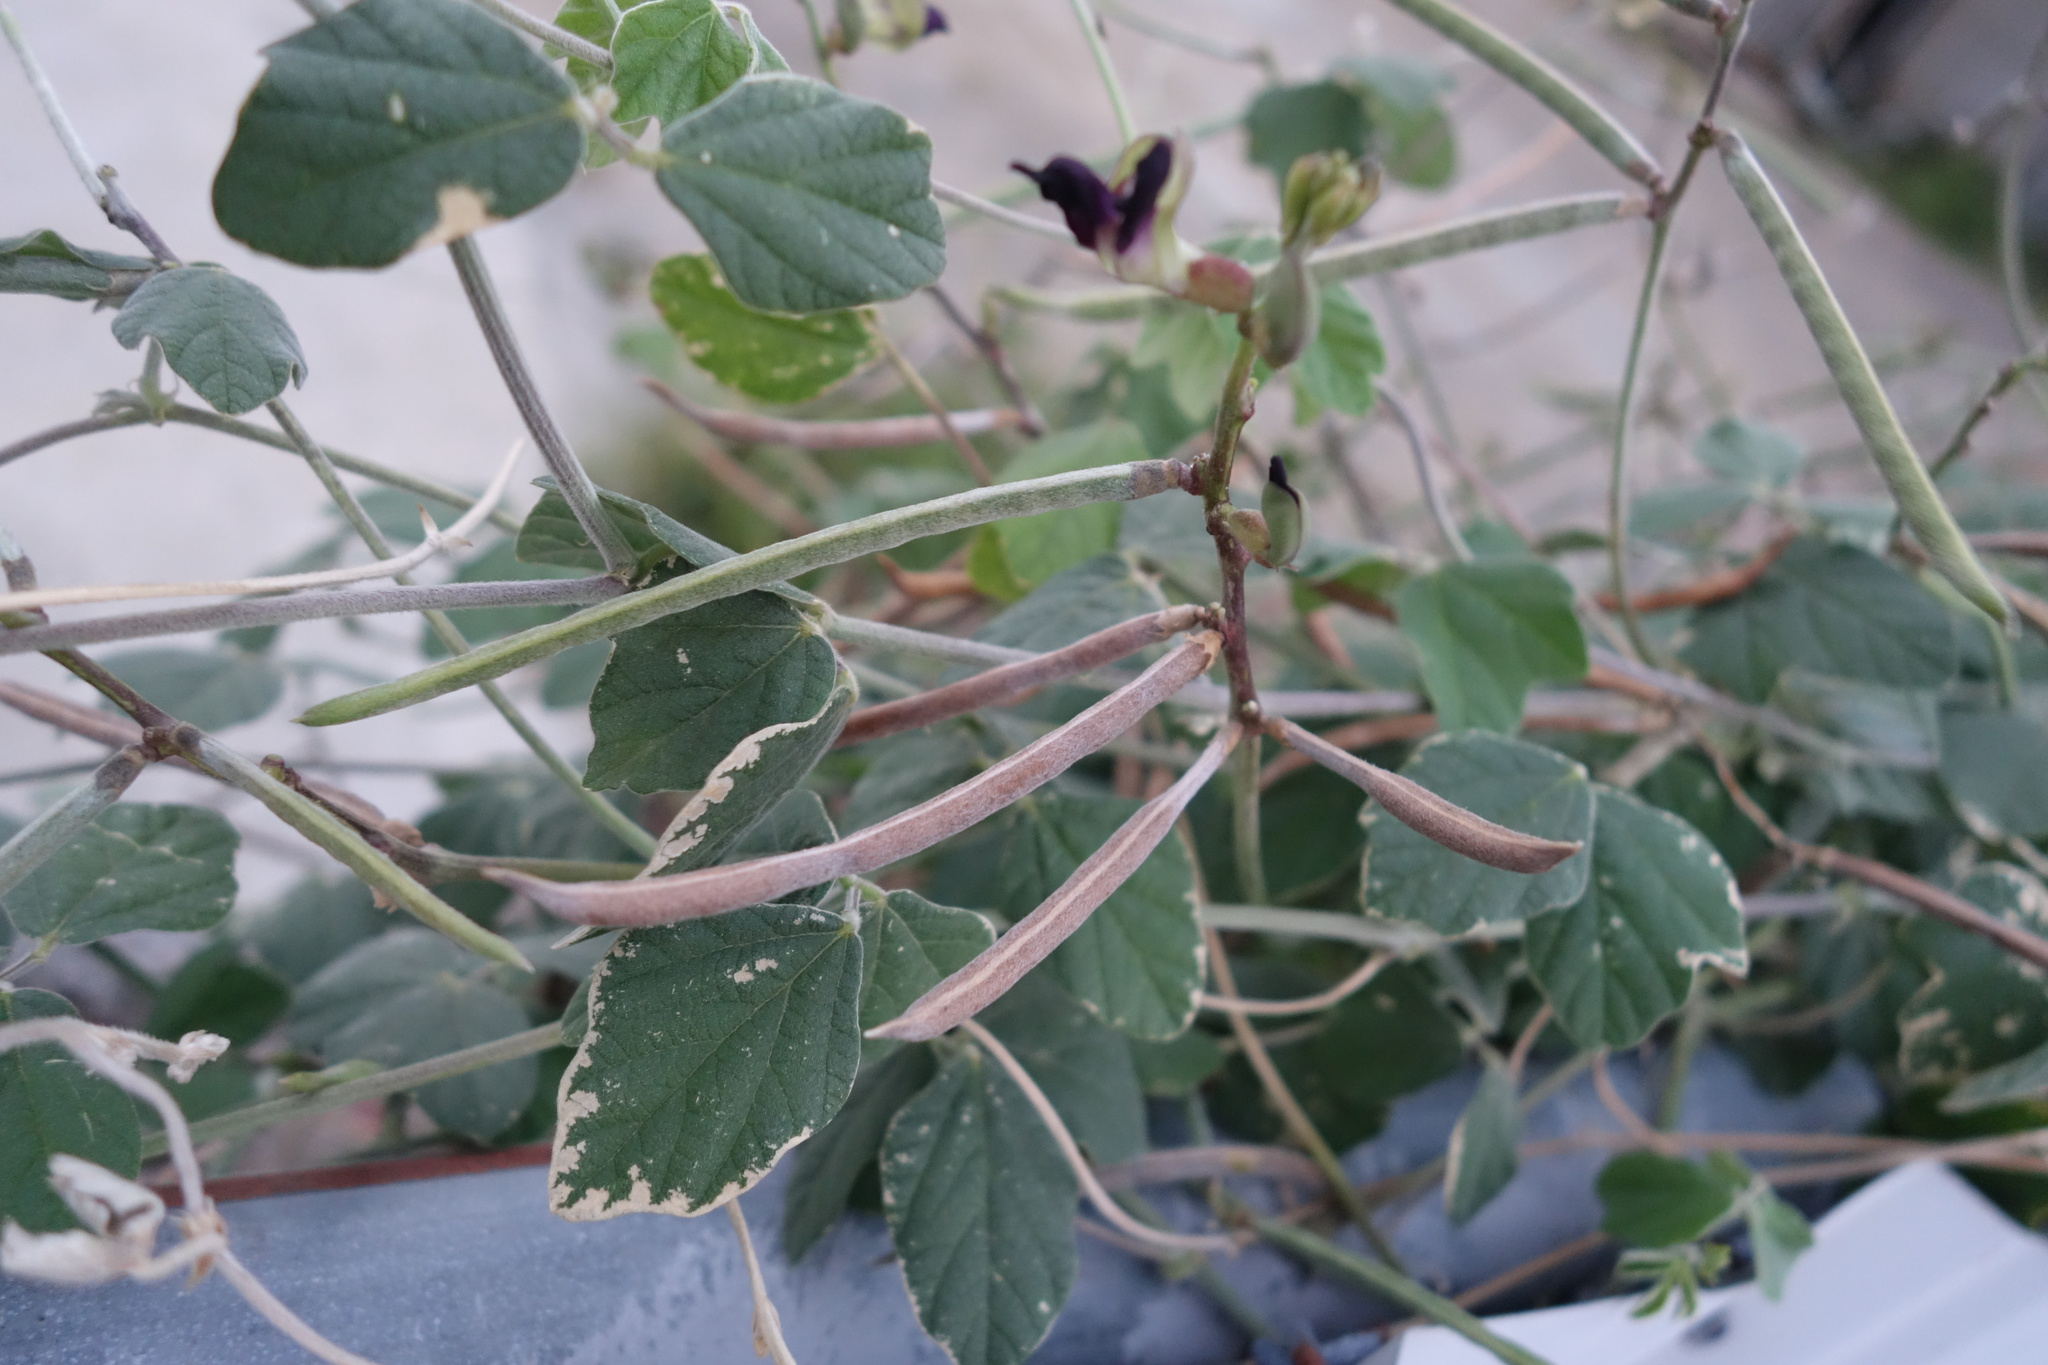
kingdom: Plantae
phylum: Tracheophyta
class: Magnoliopsida
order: Fabales
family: Fabaceae
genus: Macroptilium
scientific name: Macroptilium atropurpureum
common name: Purple bushbean
